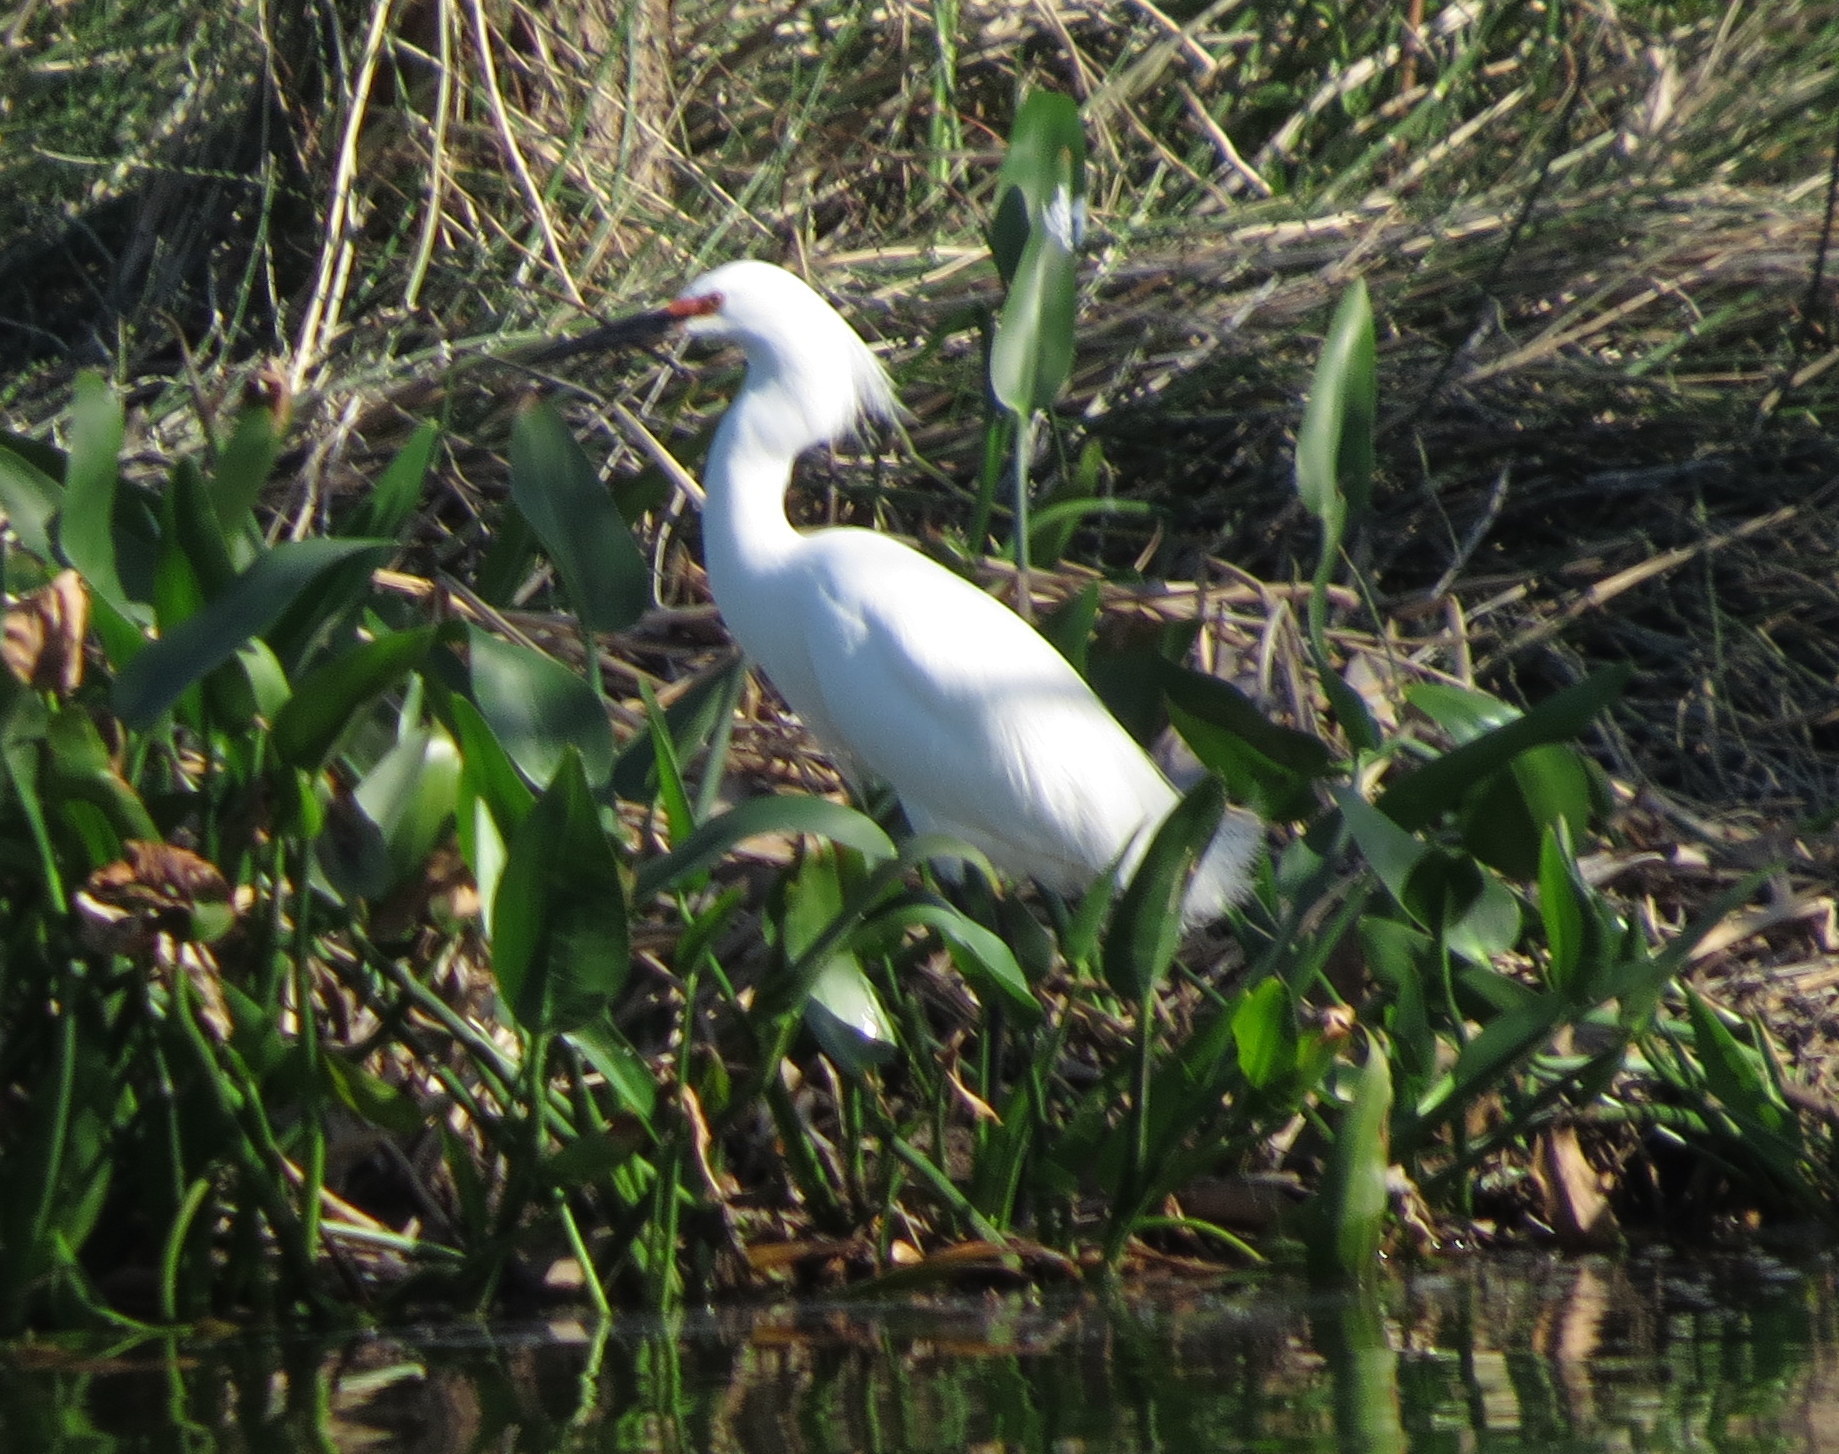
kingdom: Animalia
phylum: Chordata
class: Aves
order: Pelecaniformes
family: Ardeidae
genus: Egretta
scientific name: Egretta thula
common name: Snowy egret
